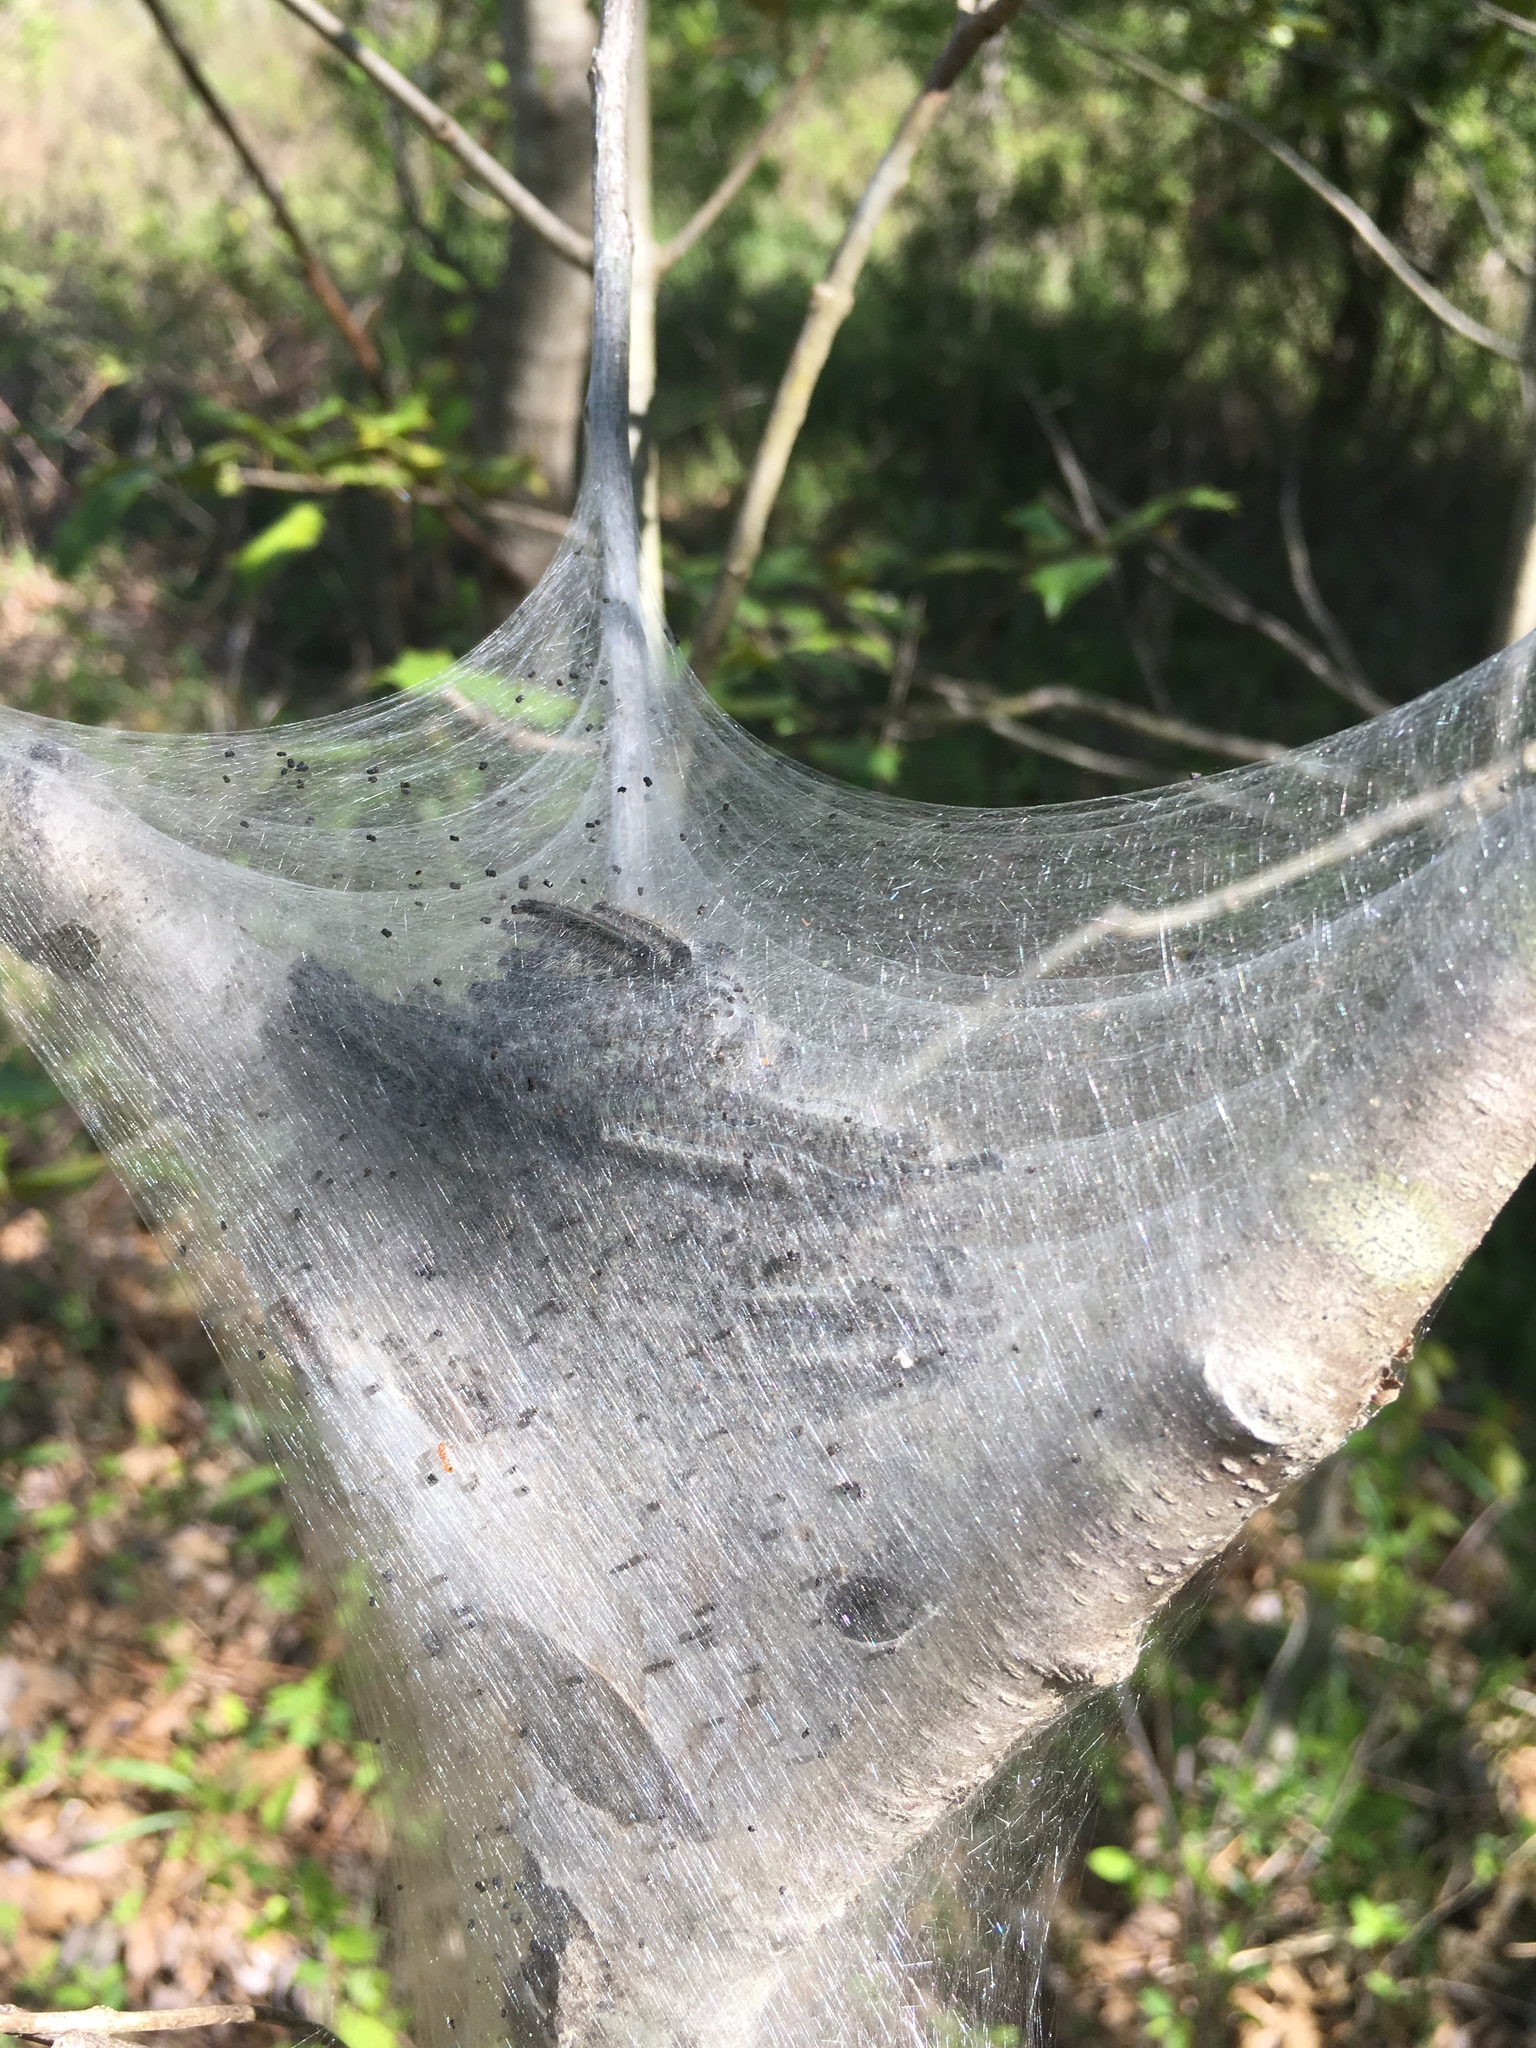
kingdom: Animalia
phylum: Arthropoda
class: Insecta
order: Lepidoptera
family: Lasiocampidae
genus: Malacosoma
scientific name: Malacosoma americana
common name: Eastern tent caterpillar moth
